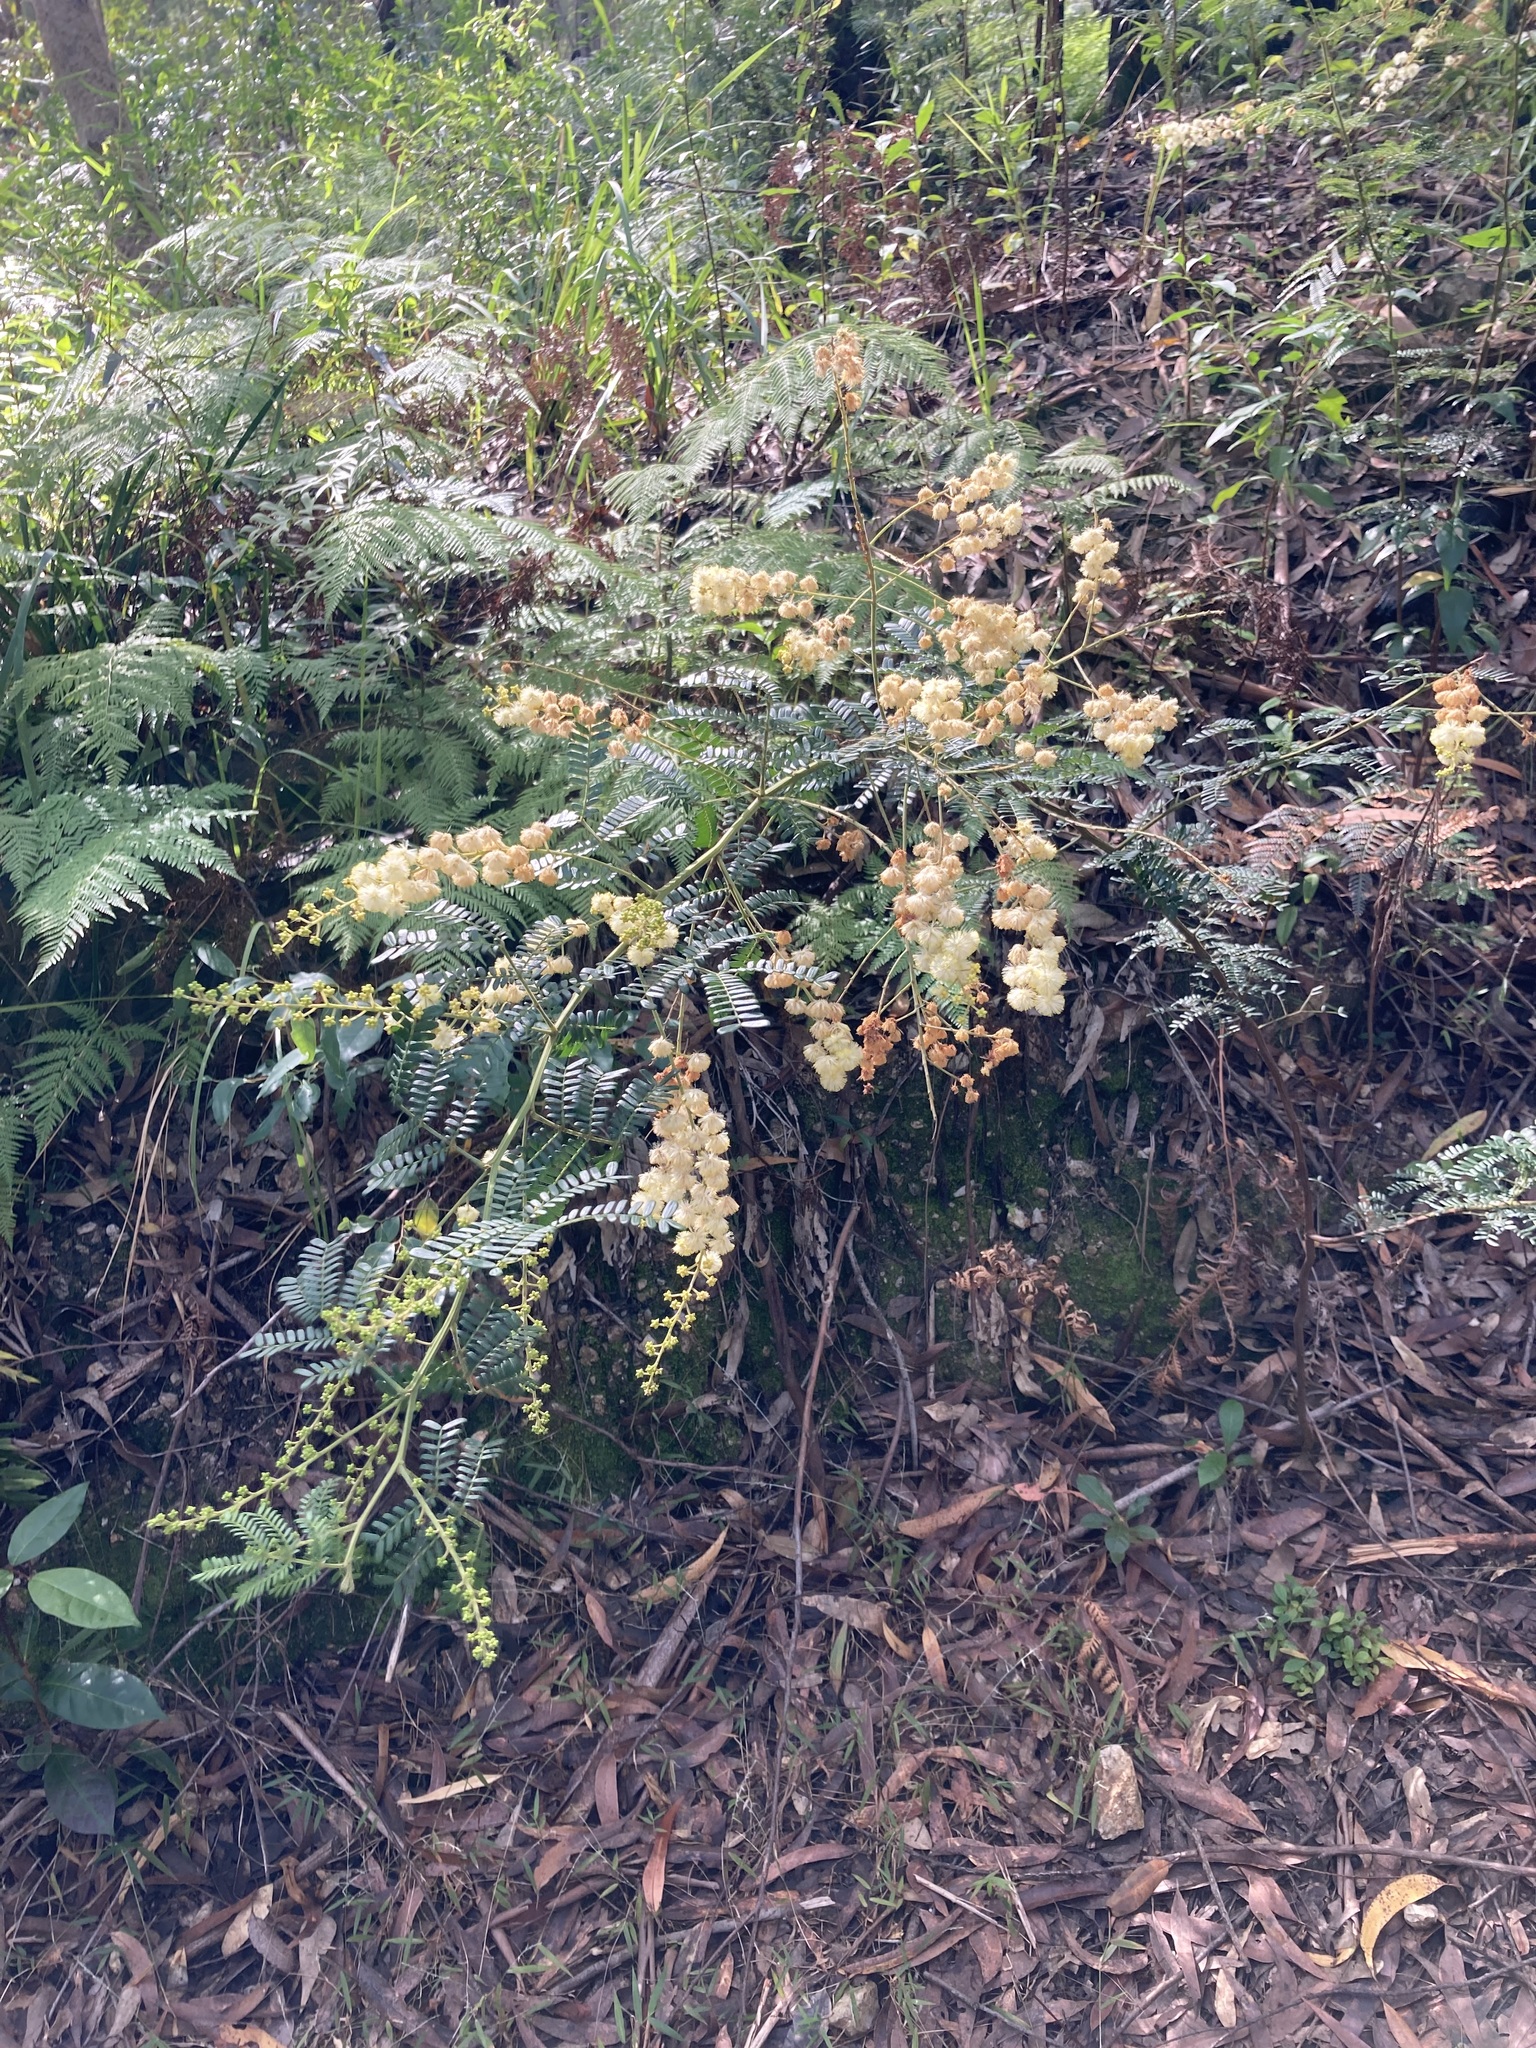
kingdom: Plantae
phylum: Tracheophyta
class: Magnoliopsida
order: Fabales
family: Fabaceae
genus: Acacia
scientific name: Acacia terminalis
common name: Cedar wattle
